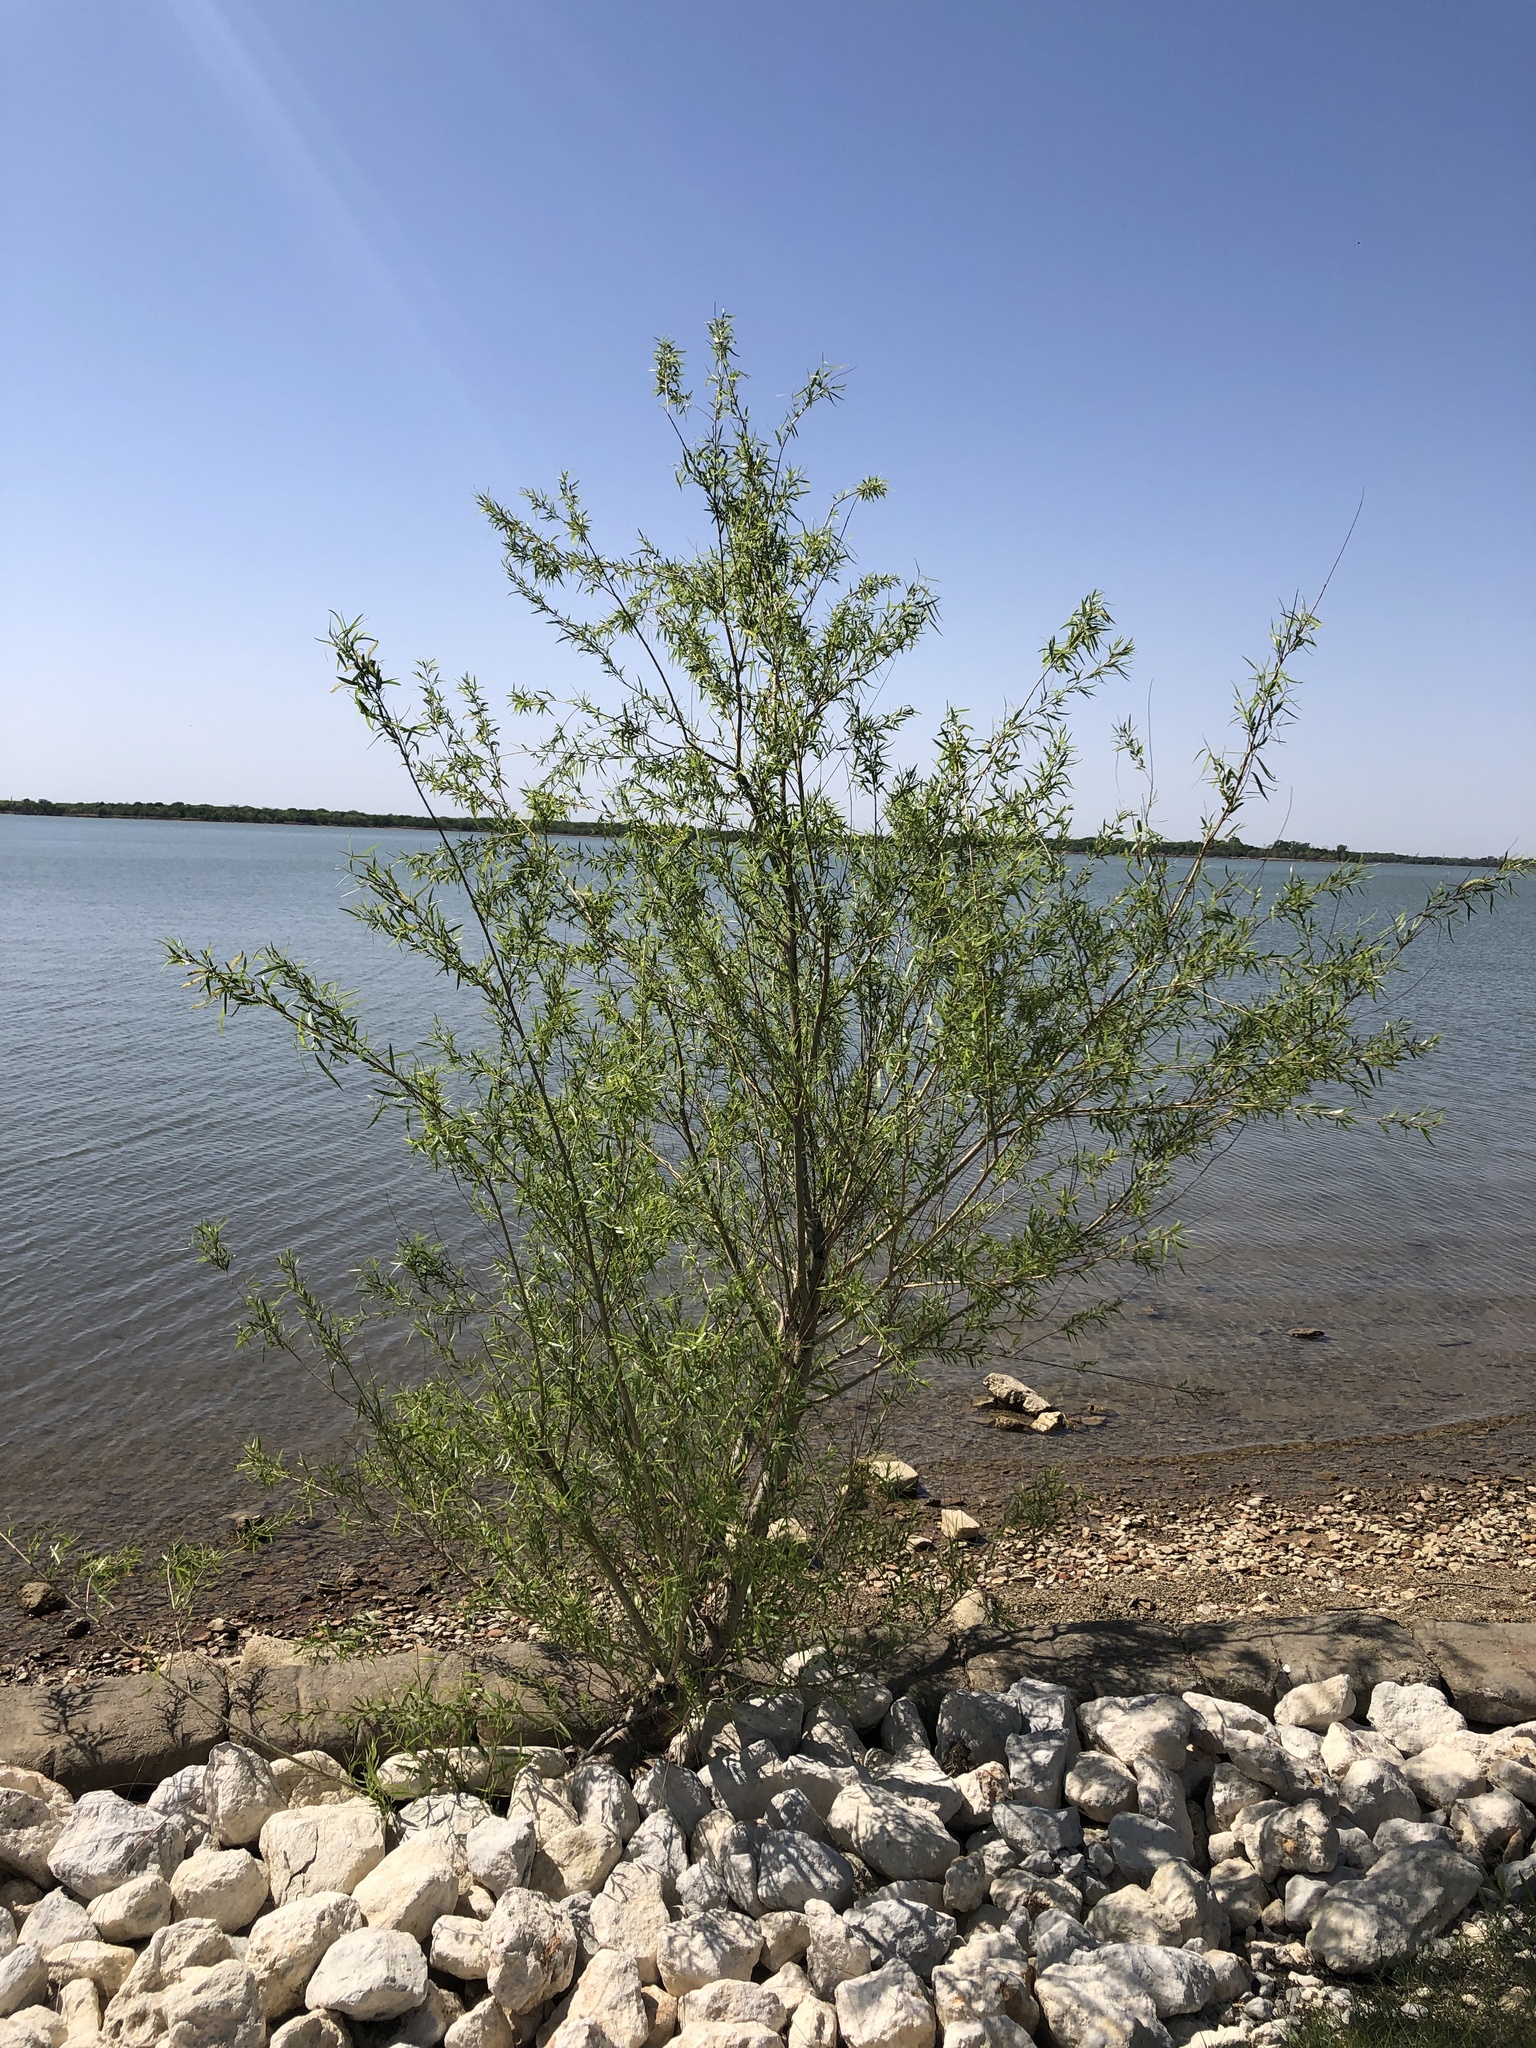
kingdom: Plantae
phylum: Tracheophyta
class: Magnoliopsida
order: Malpighiales
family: Salicaceae
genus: Salix
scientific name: Salix nigra
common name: Black willow
